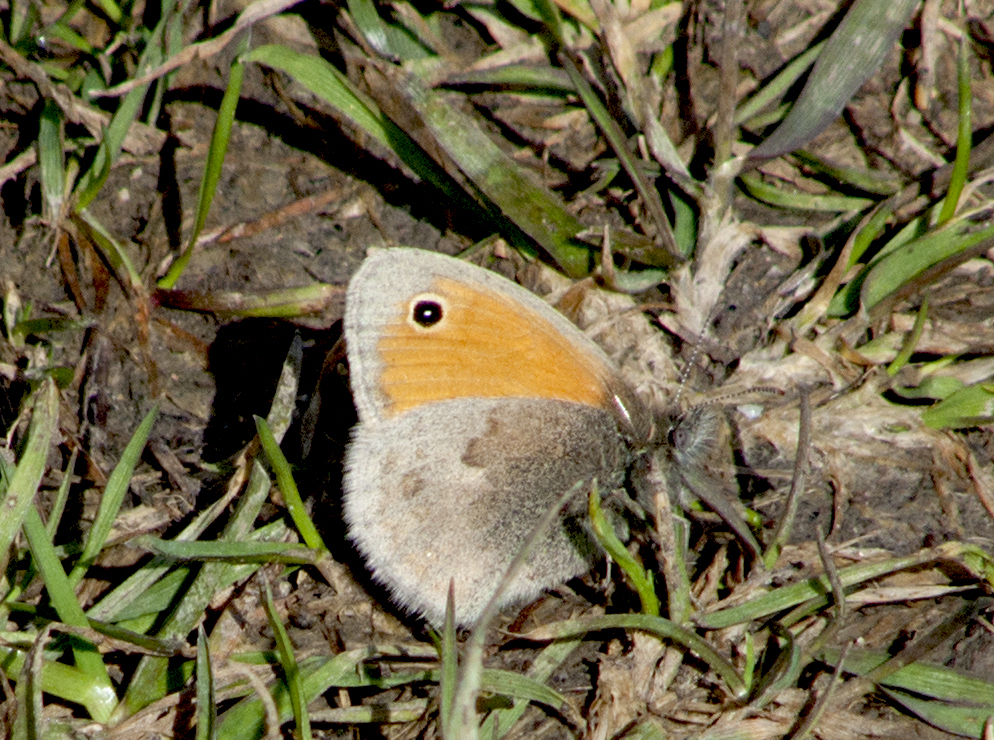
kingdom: Animalia
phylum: Arthropoda
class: Insecta
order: Lepidoptera
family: Nymphalidae
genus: Coenonympha
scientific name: Coenonympha pamphilus
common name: Small heath
